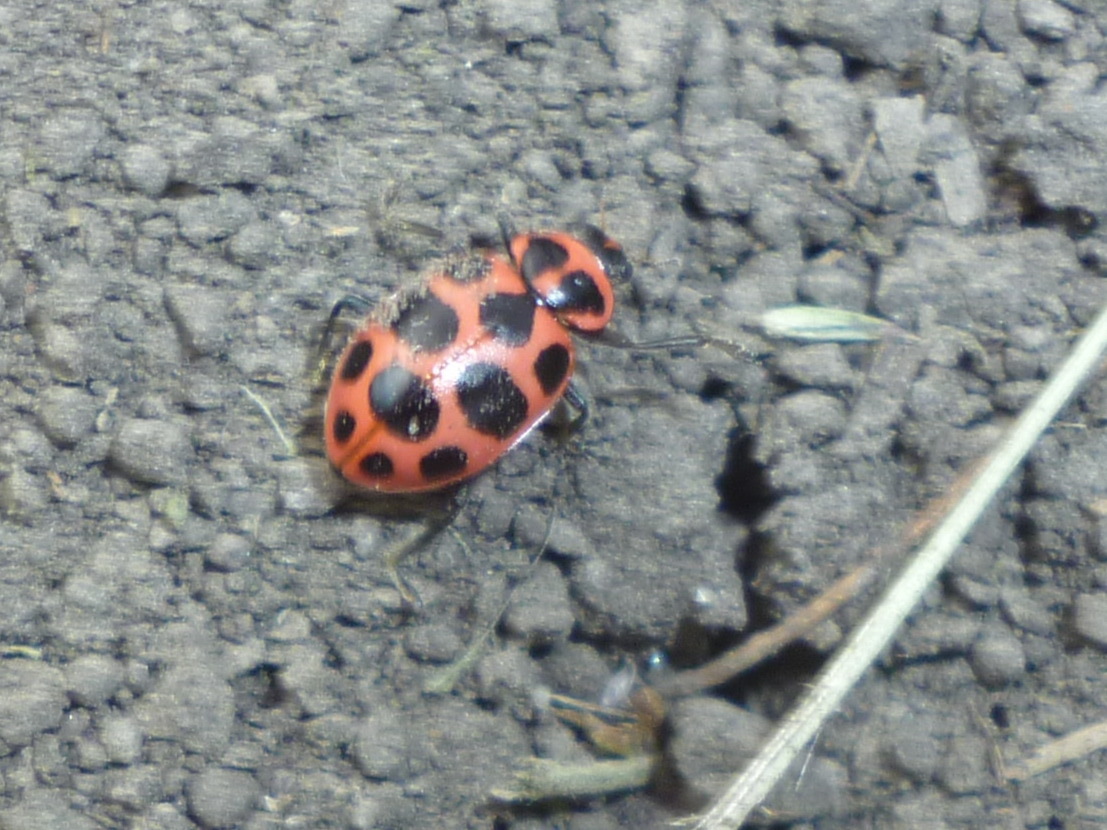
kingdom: Animalia
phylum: Arthropoda
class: Insecta
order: Coleoptera
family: Coccinellidae
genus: Coleomegilla
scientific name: Coleomegilla maculata
